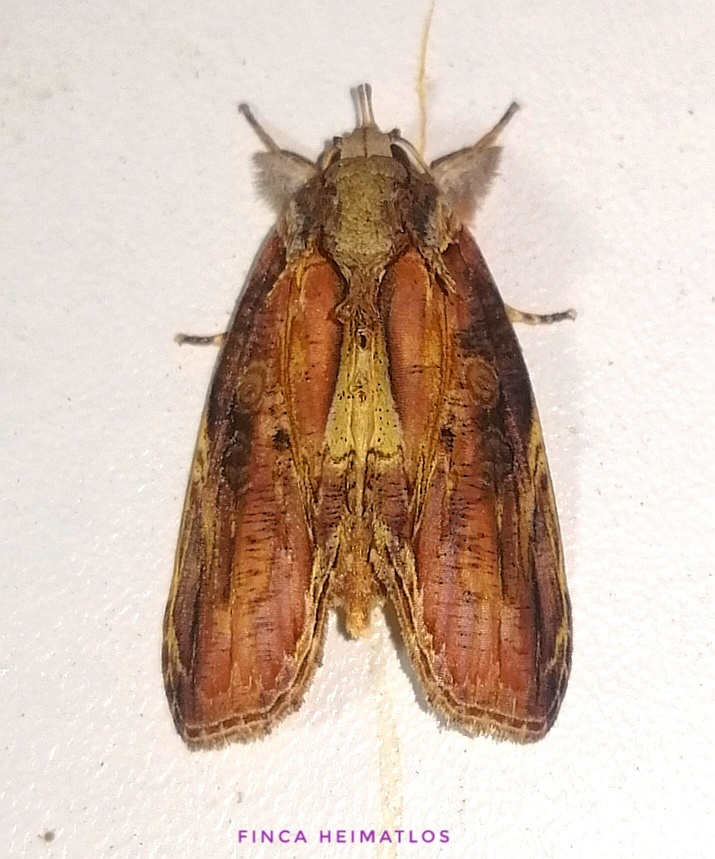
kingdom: Animalia
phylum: Arthropoda
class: Insecta
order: Lepidoptera
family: Nolidae
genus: Iscadia
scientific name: Iscadia purpurascens
